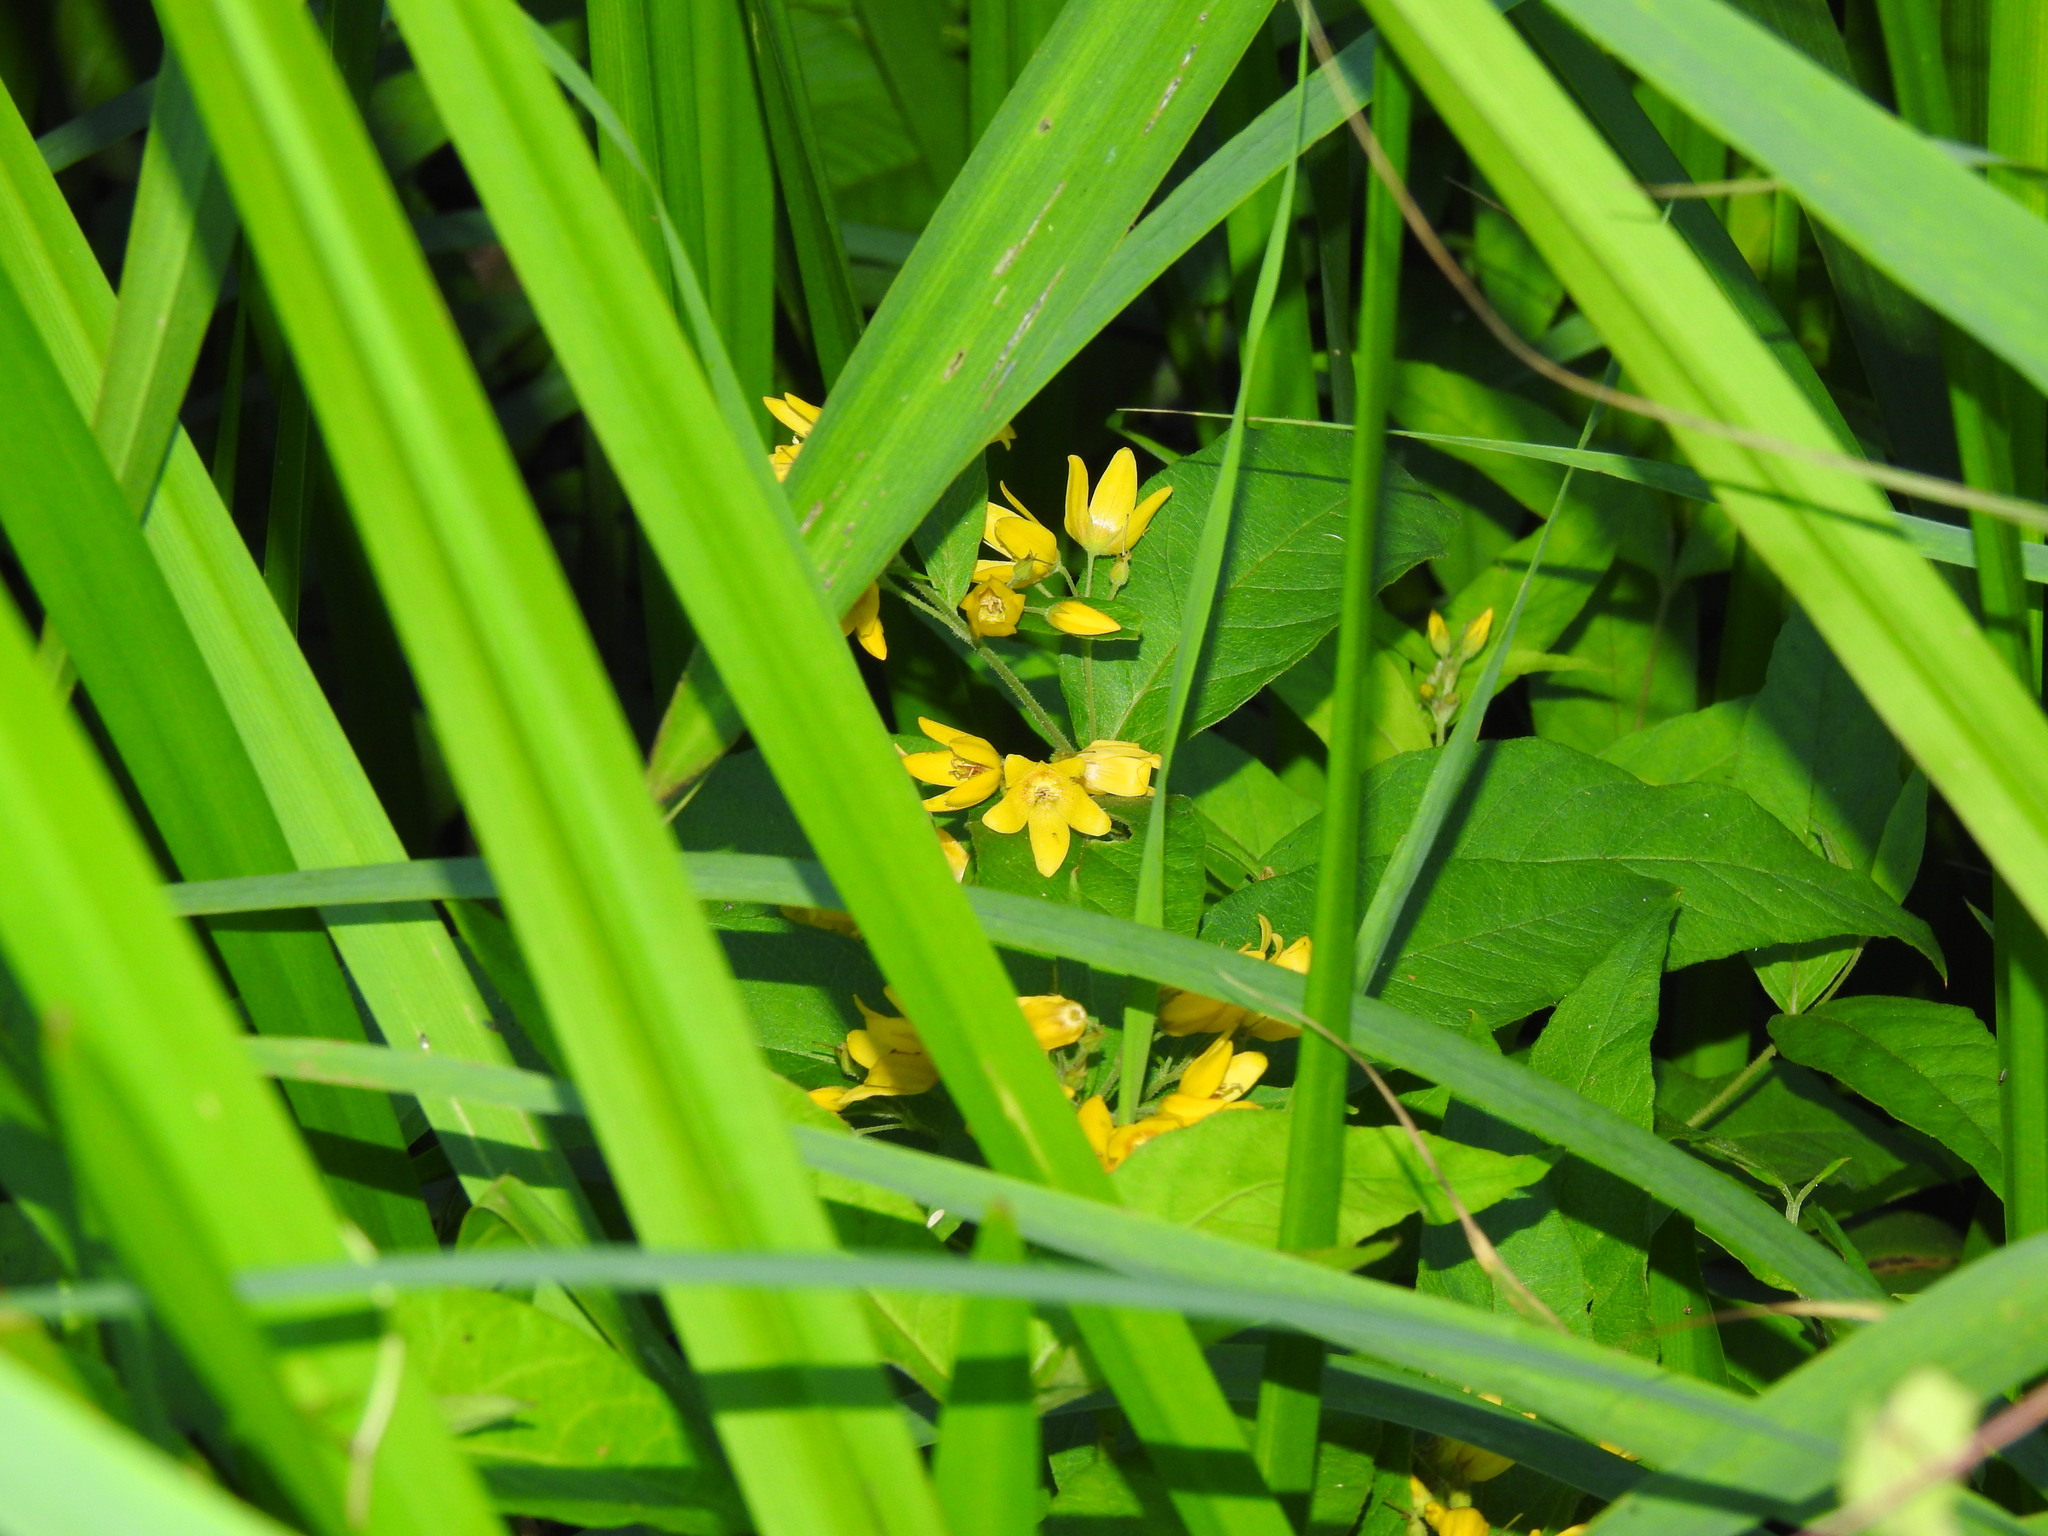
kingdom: Plantae
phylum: Tracheophyta
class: Magnoliopsida
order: Ericales
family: Primulaceae
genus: Lysimachia
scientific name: Lysimachia vulgaris
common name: Yellow loosestrife
